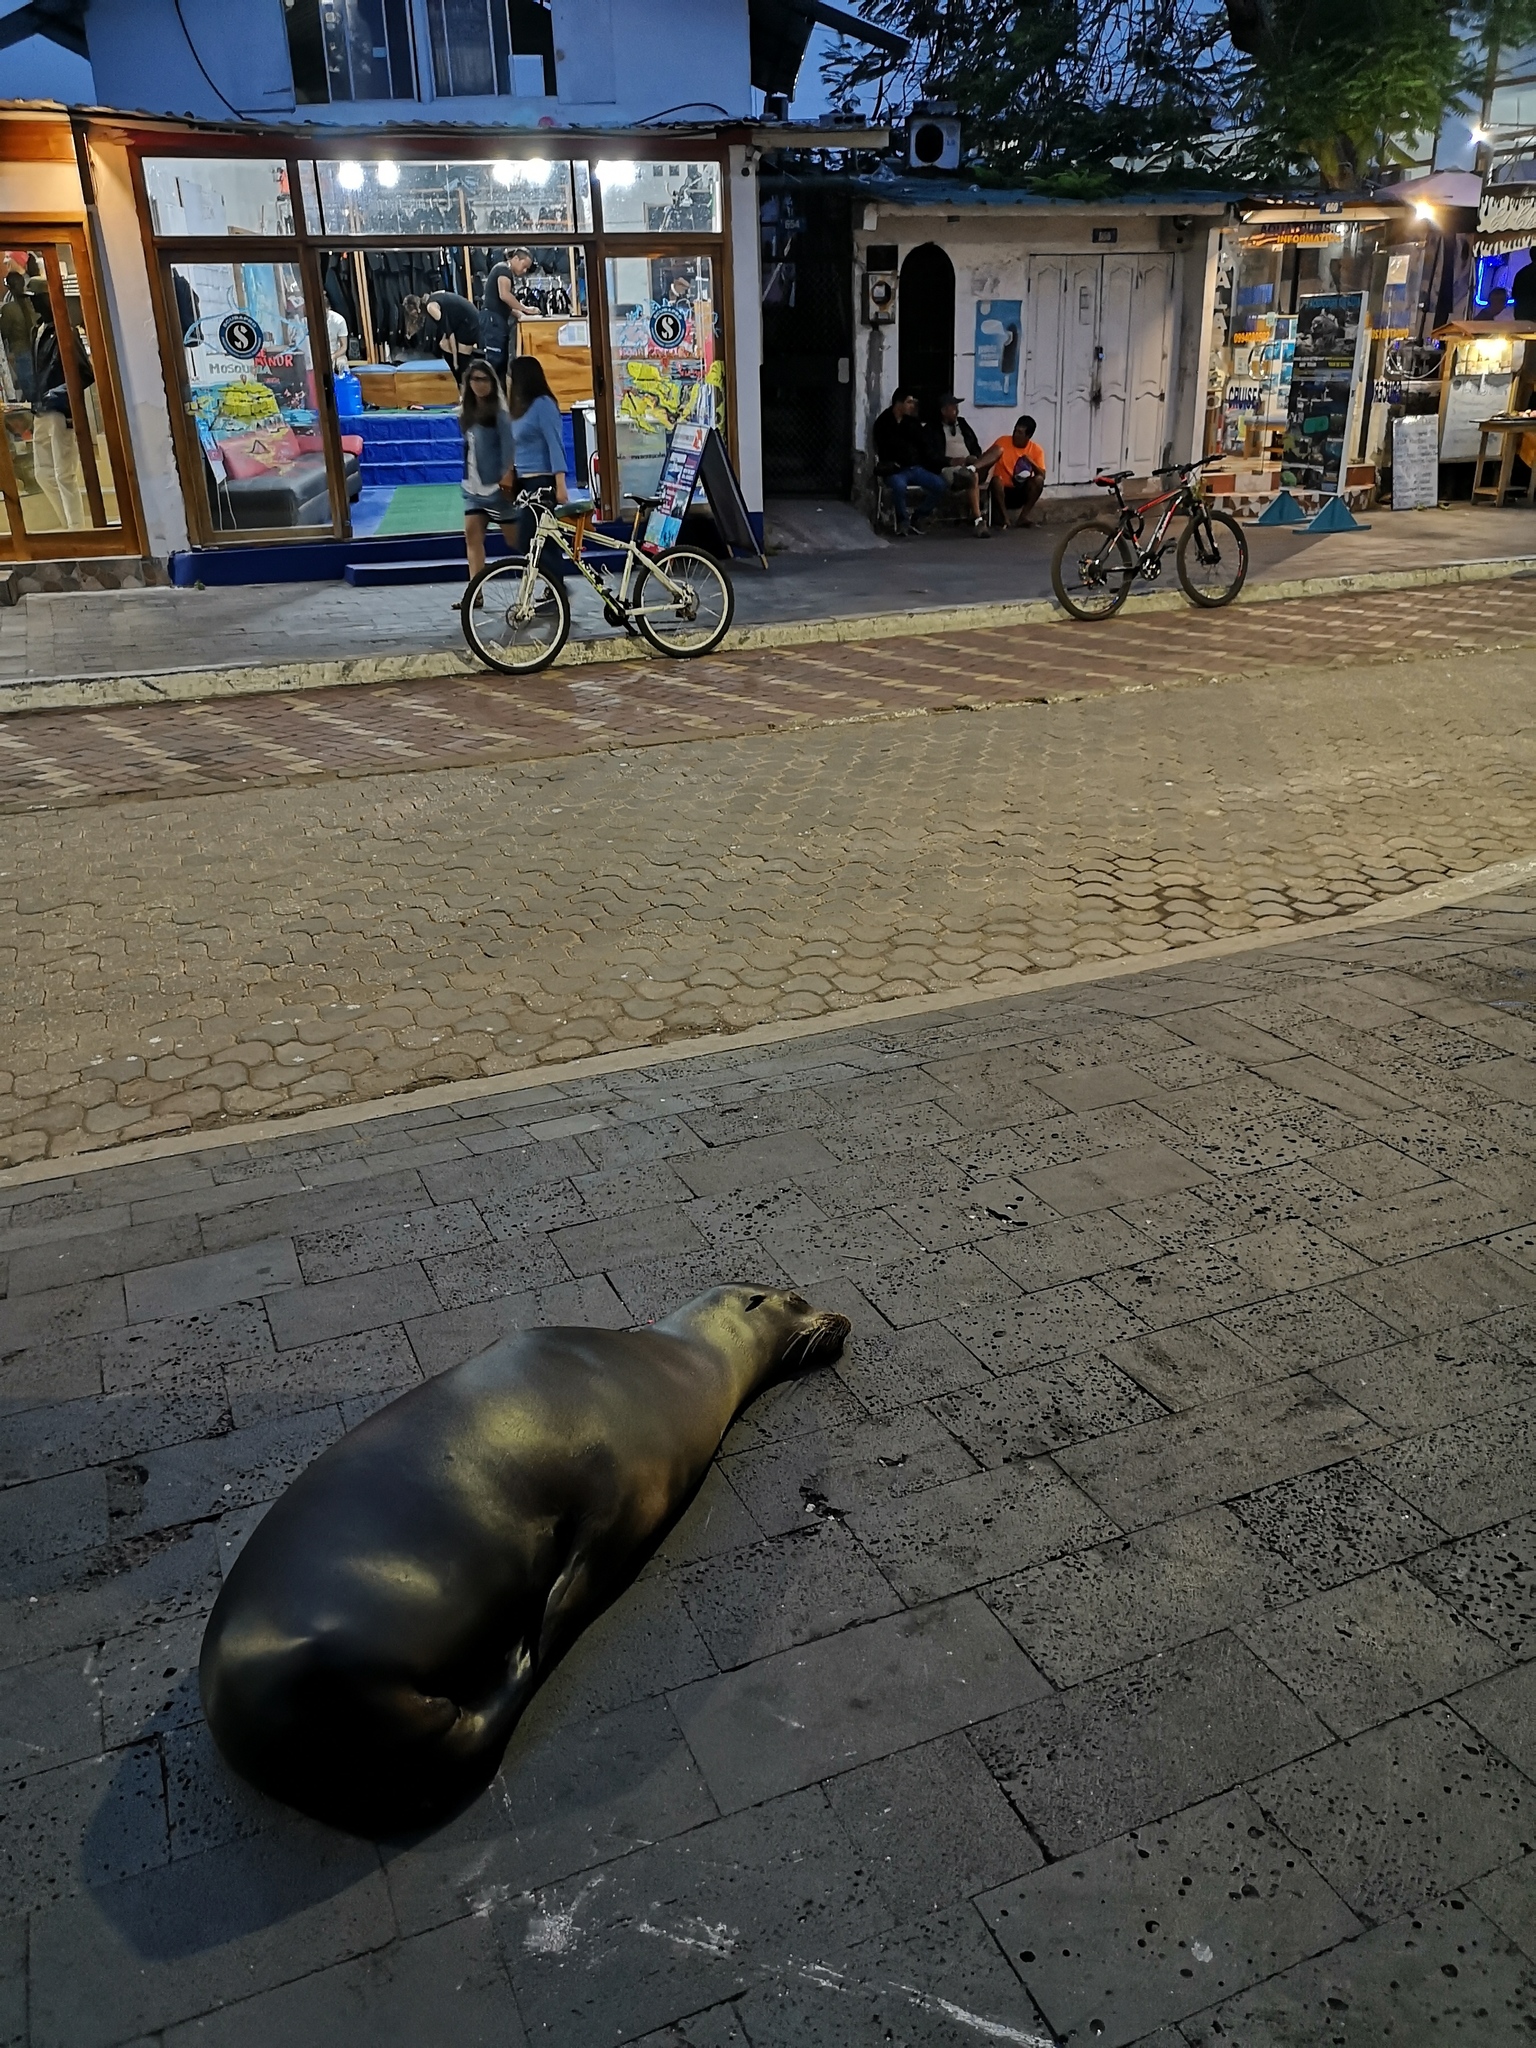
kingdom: Animalia
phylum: Chordata
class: Mammalia
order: Carnivora
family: Otariidae
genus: Zalophus
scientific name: Zalophus wollebaeki
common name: Galapagos sea lion
